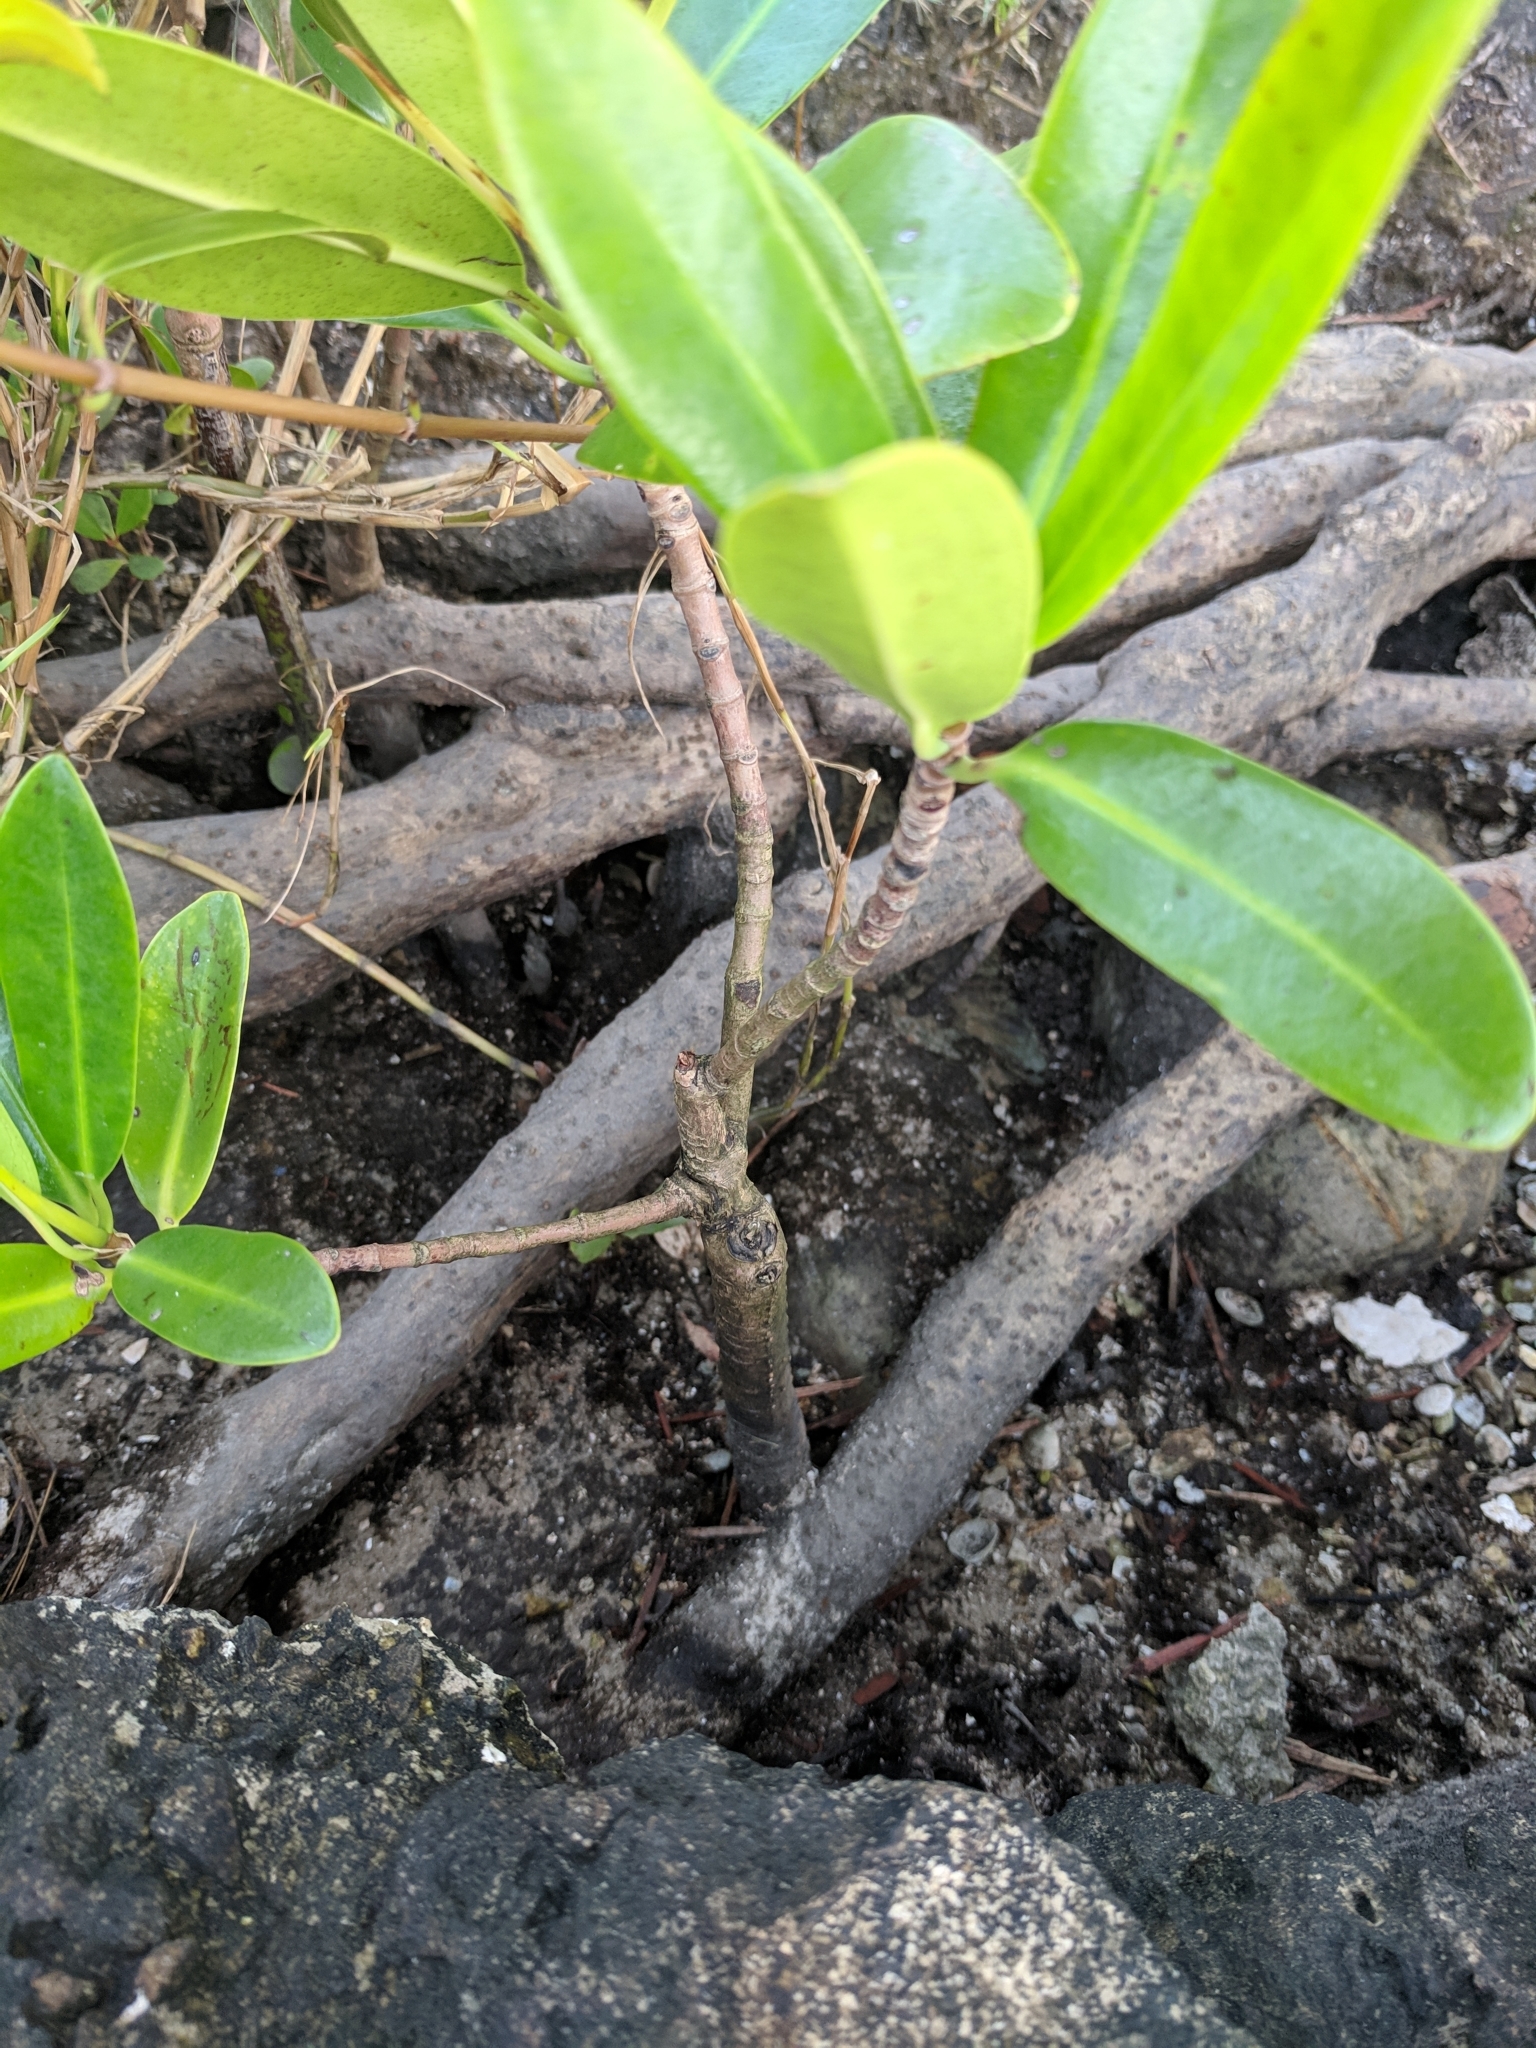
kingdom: Plantae
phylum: Tracheophyta
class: Magnoliopsida
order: Malpighiales
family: Rhizophoraceae
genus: Rhizophora
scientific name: Rhizophora mangle
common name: Red mangrove
